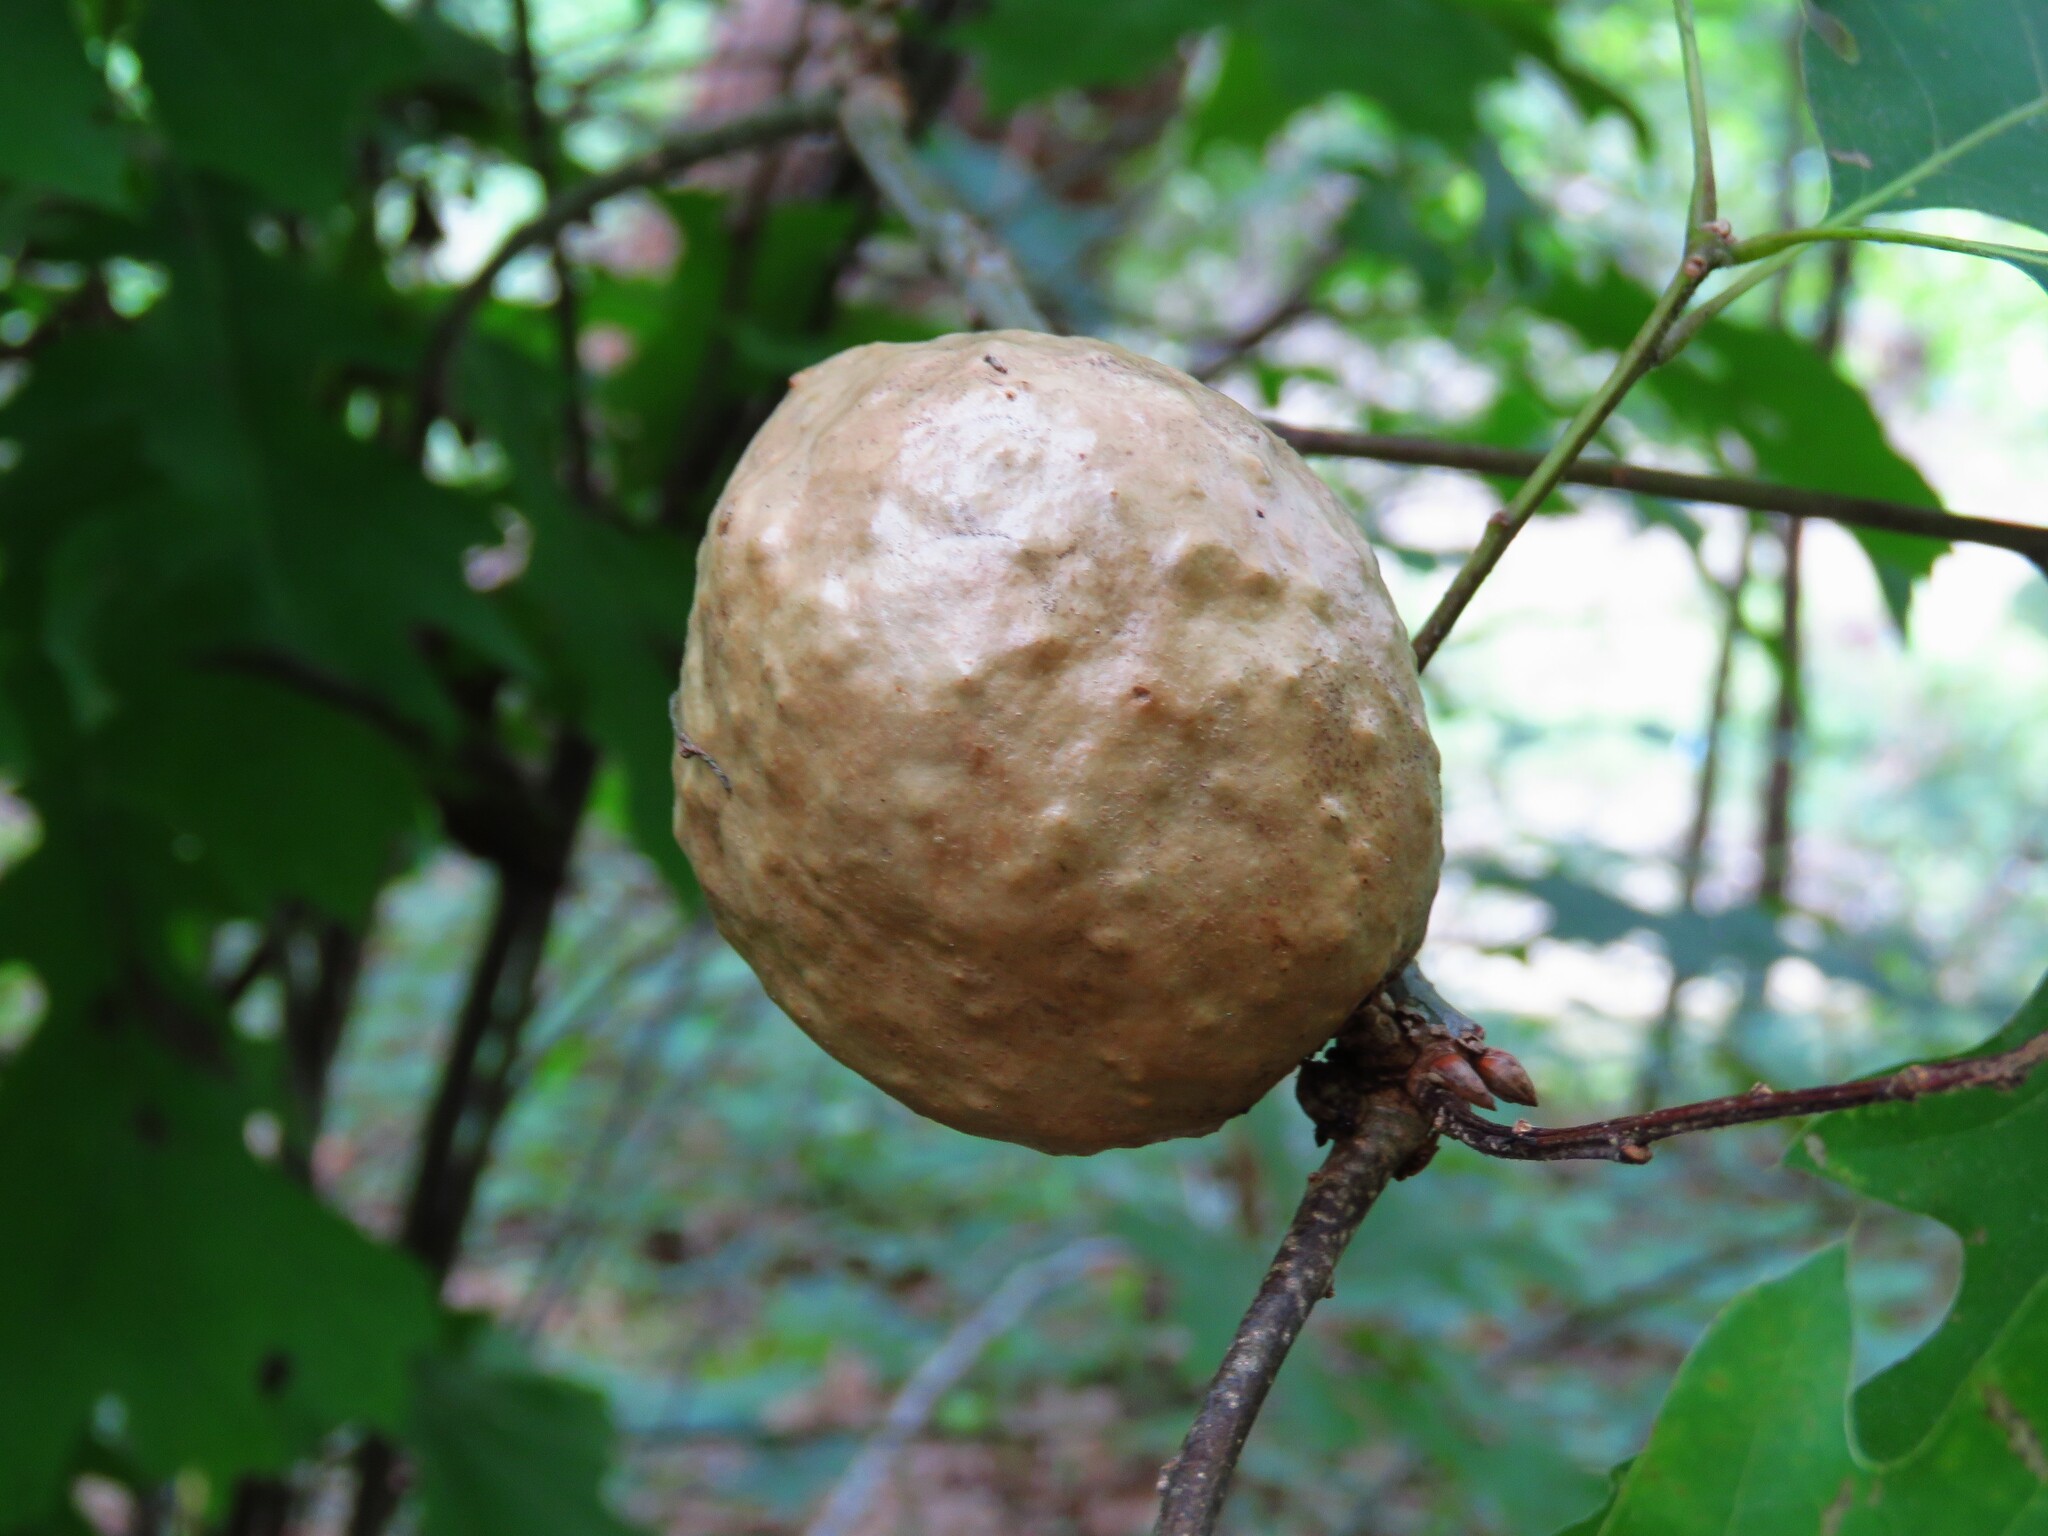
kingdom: Animalia
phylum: Arthropoda
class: Insecta
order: Hymenoptera
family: Cynipidae
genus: Amphibolips
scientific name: Amphibolips
